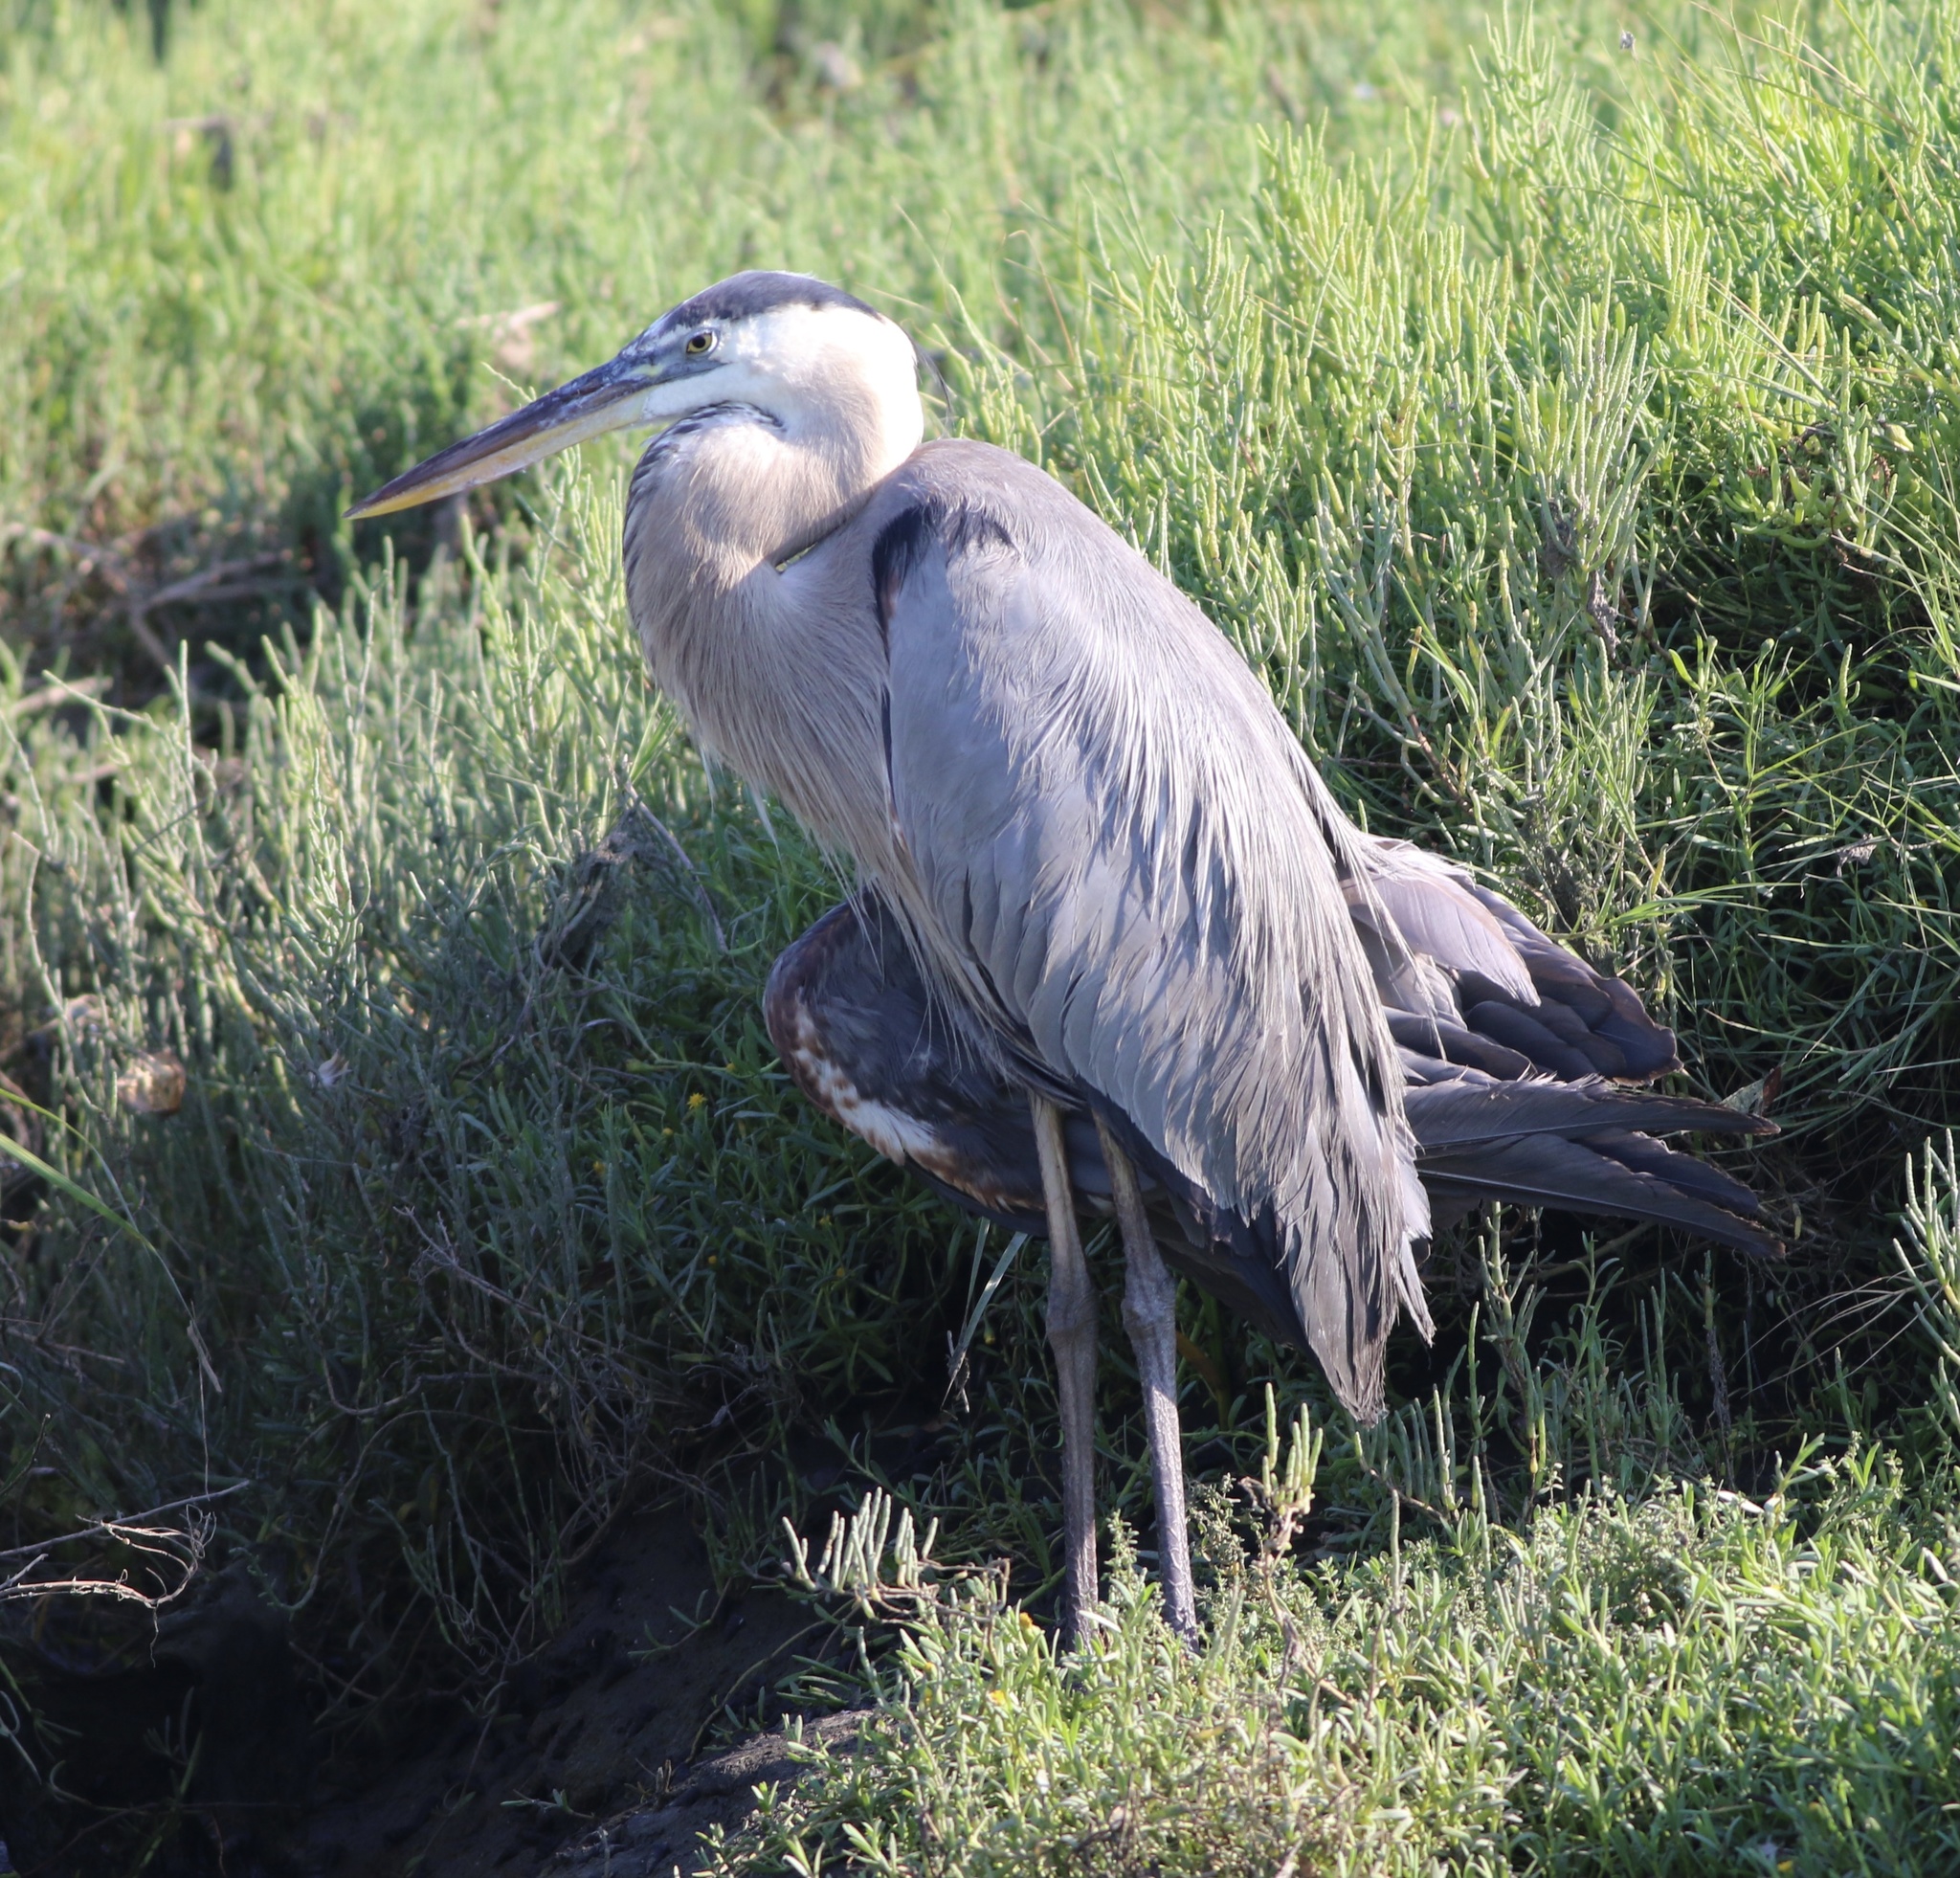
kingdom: Animalia
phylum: Chordata
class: Aves
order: Pelecaniformes
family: Ardeidae
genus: Ardea
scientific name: Ardea herodias
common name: Great blue heron
